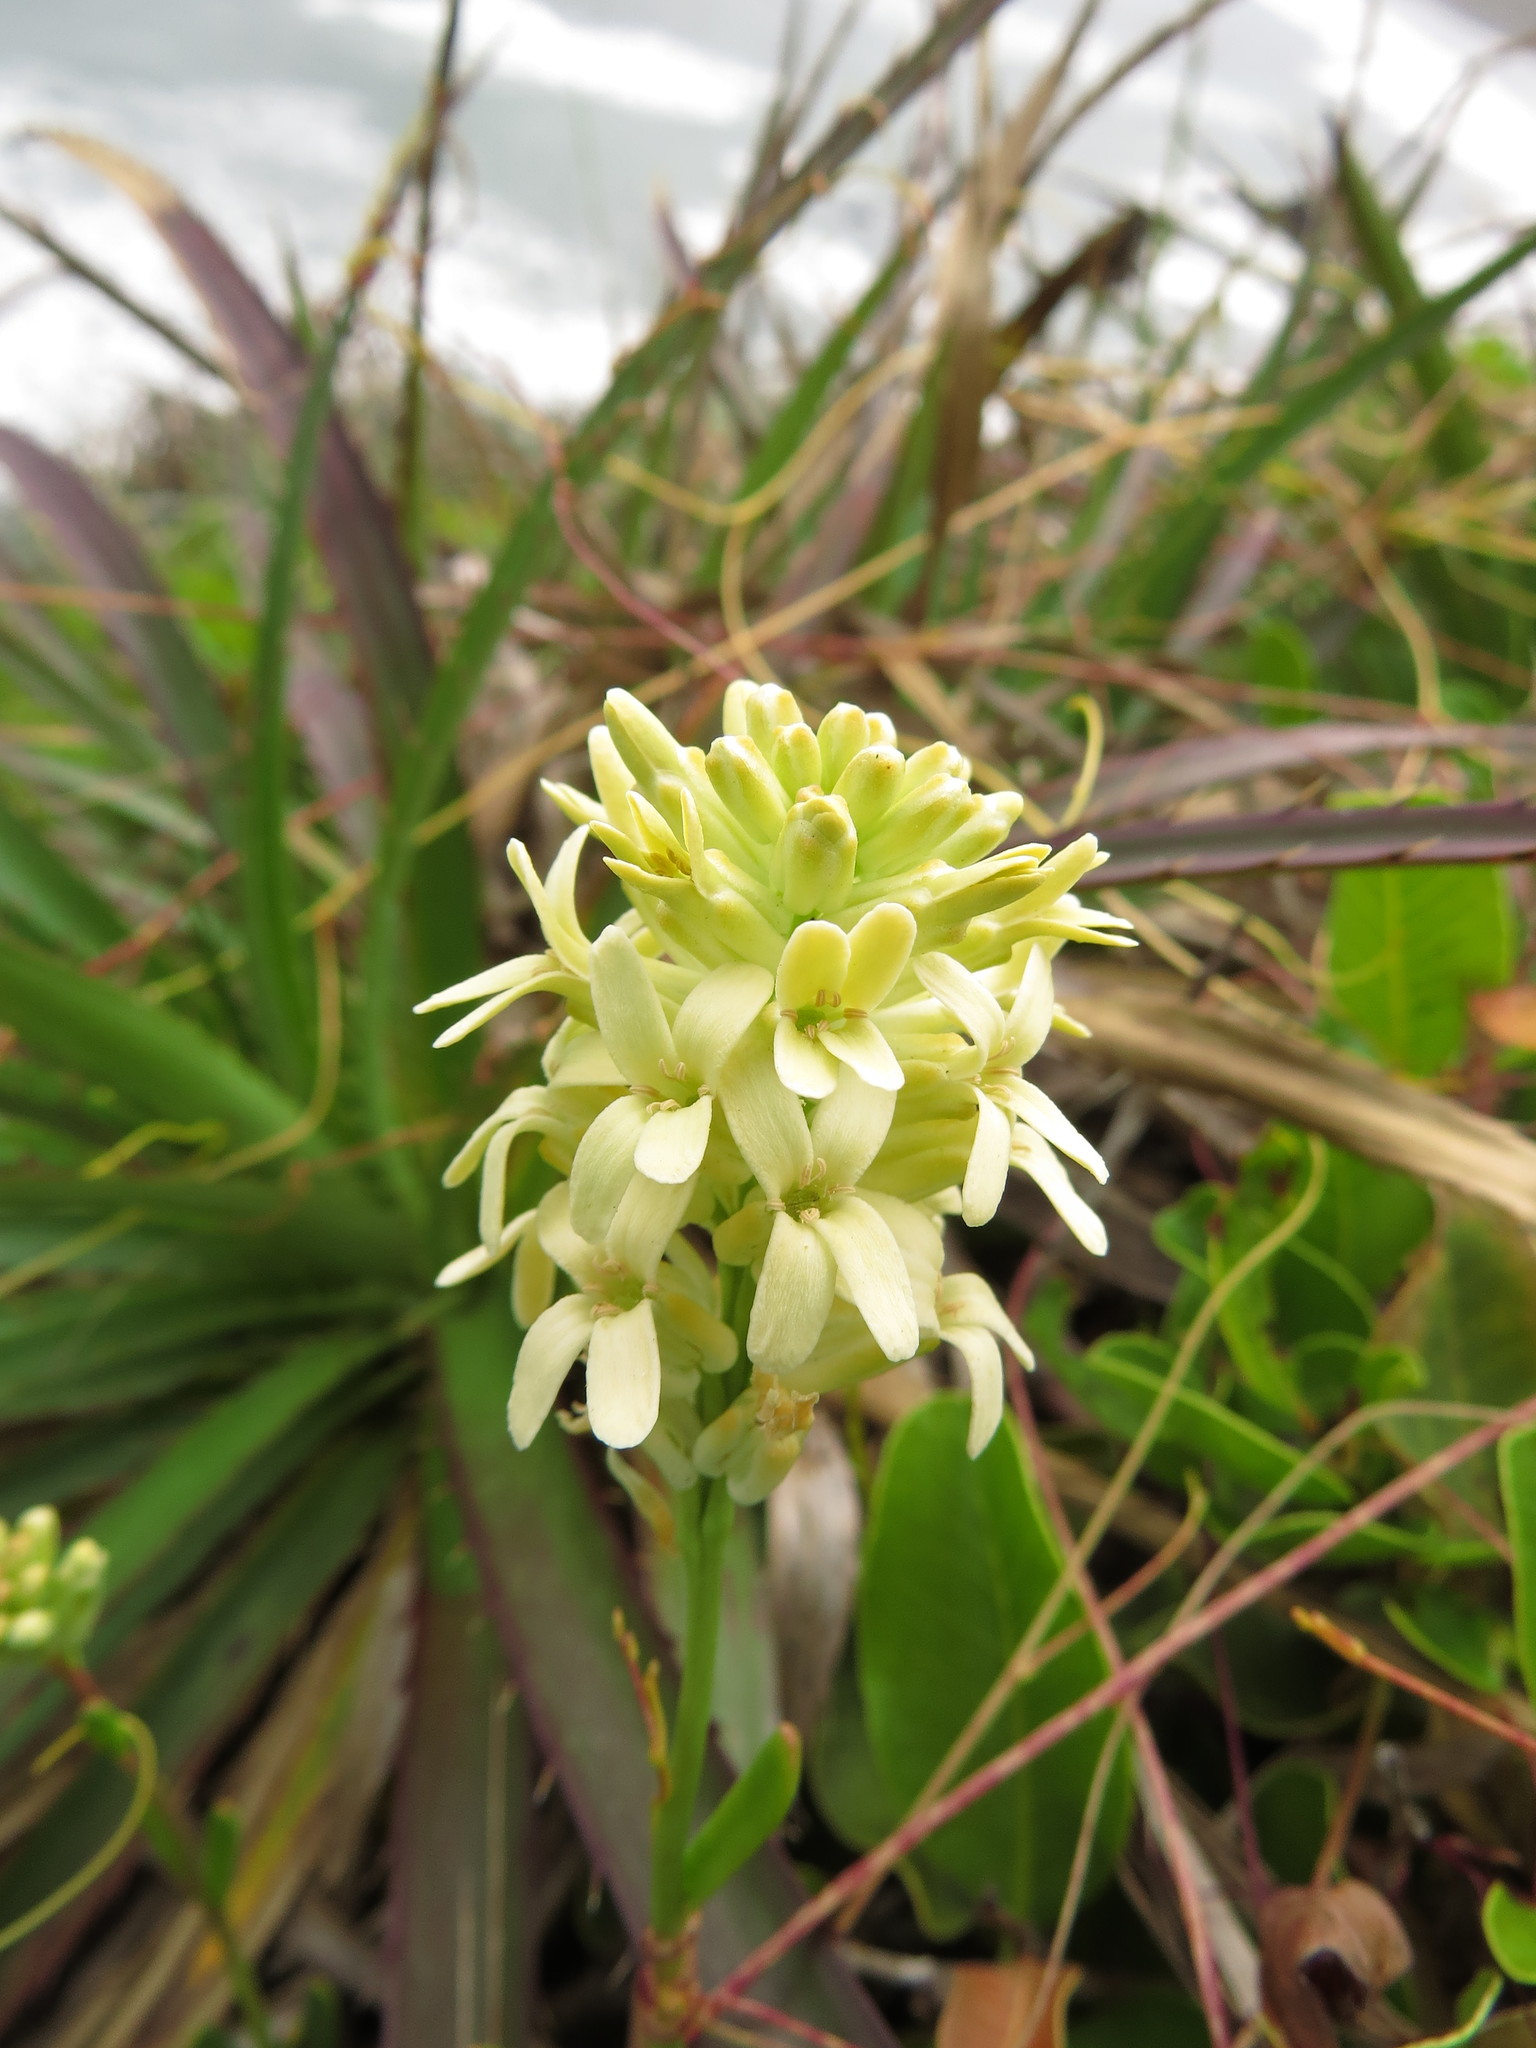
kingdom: Plantae
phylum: Tracheophyta
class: Magnoliopsida
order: Brassicales
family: Brassicaceae
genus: Menonvillea
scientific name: Menonvillea linearis
